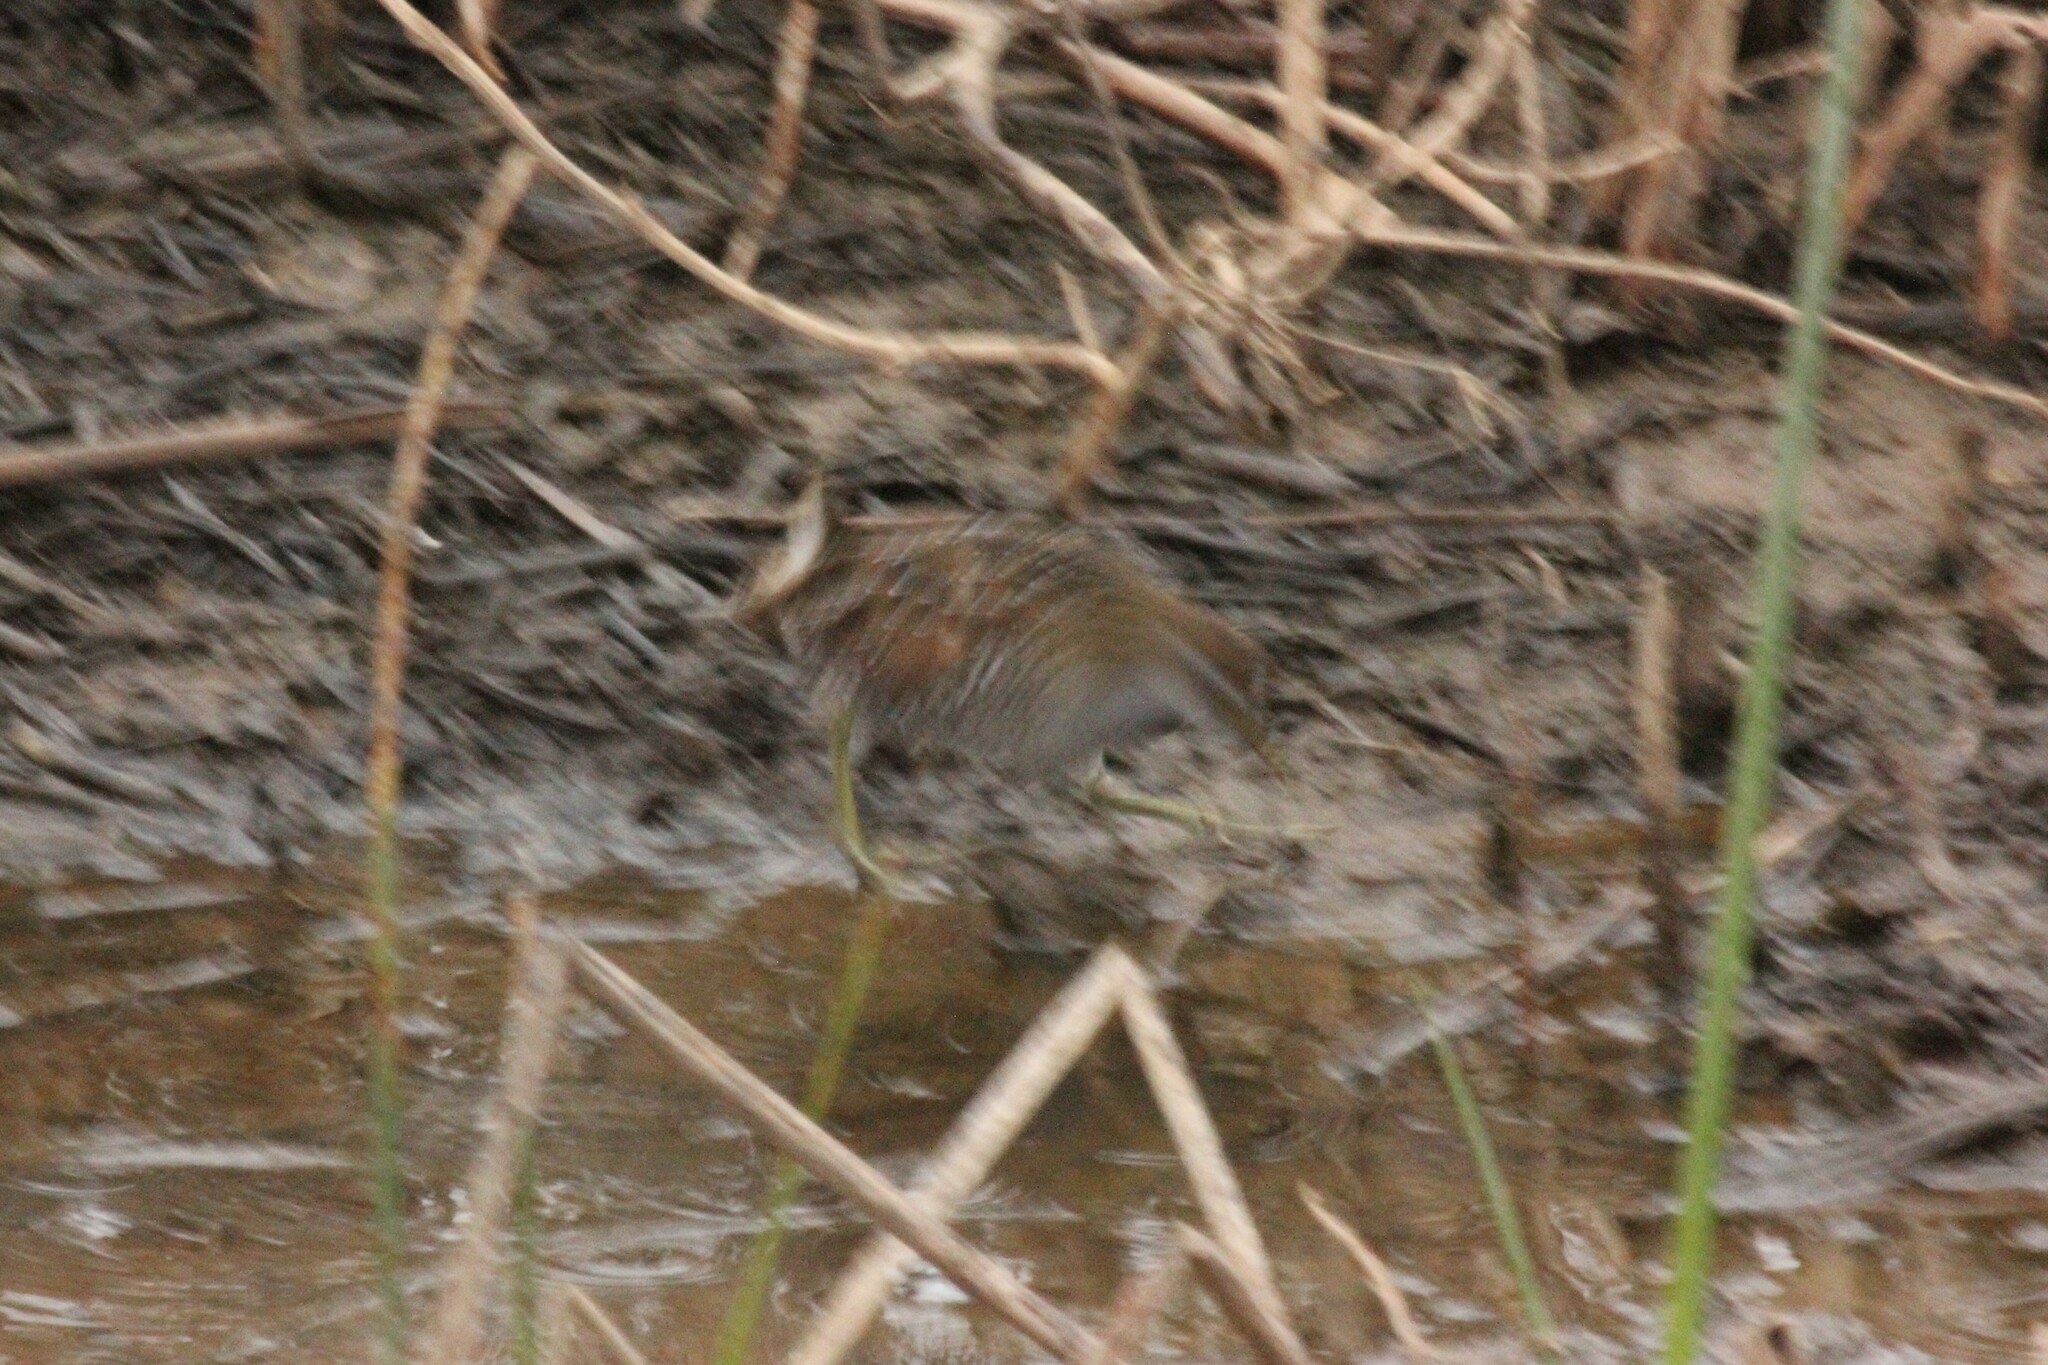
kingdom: Animalia
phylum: Chordata
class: Aves
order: Gruiformes
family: Rallidae
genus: Porzana
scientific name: Porzana carolina
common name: Sora
